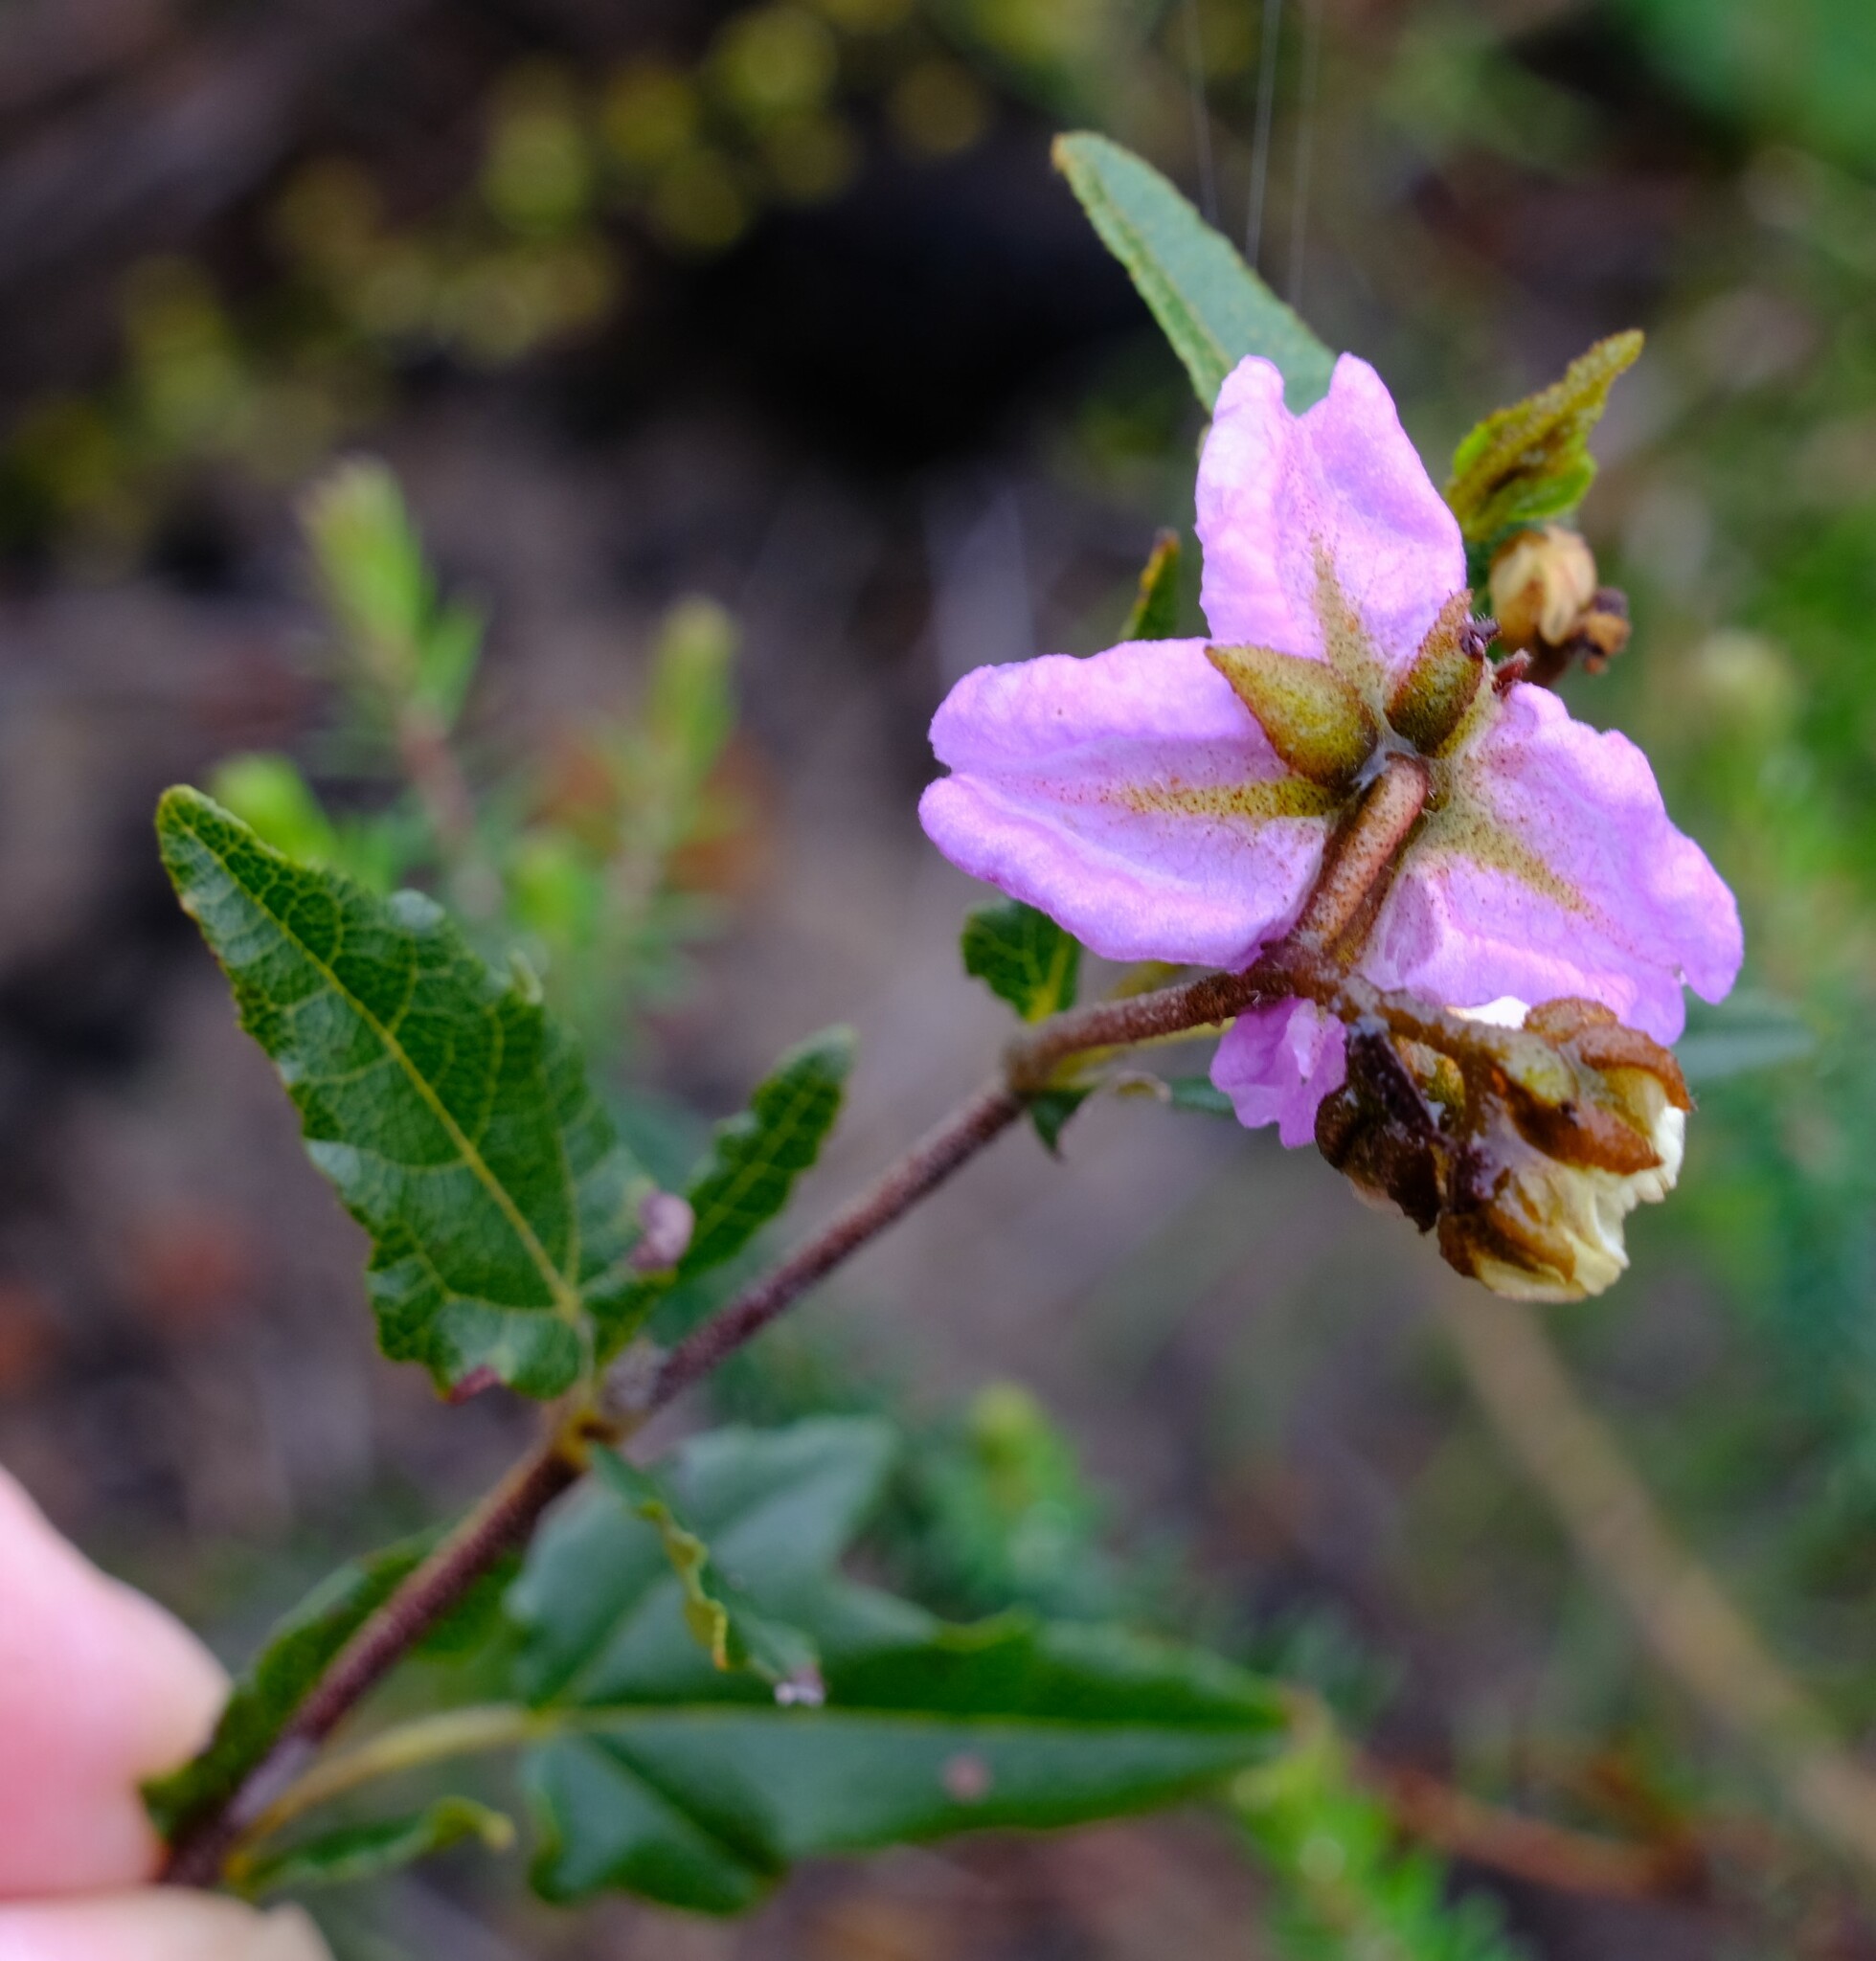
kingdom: Plantae
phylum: Tracheophyta
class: Magnoliopsida
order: Malvales
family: Malvaceae
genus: Thomasia
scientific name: Thomasia grandiflora
